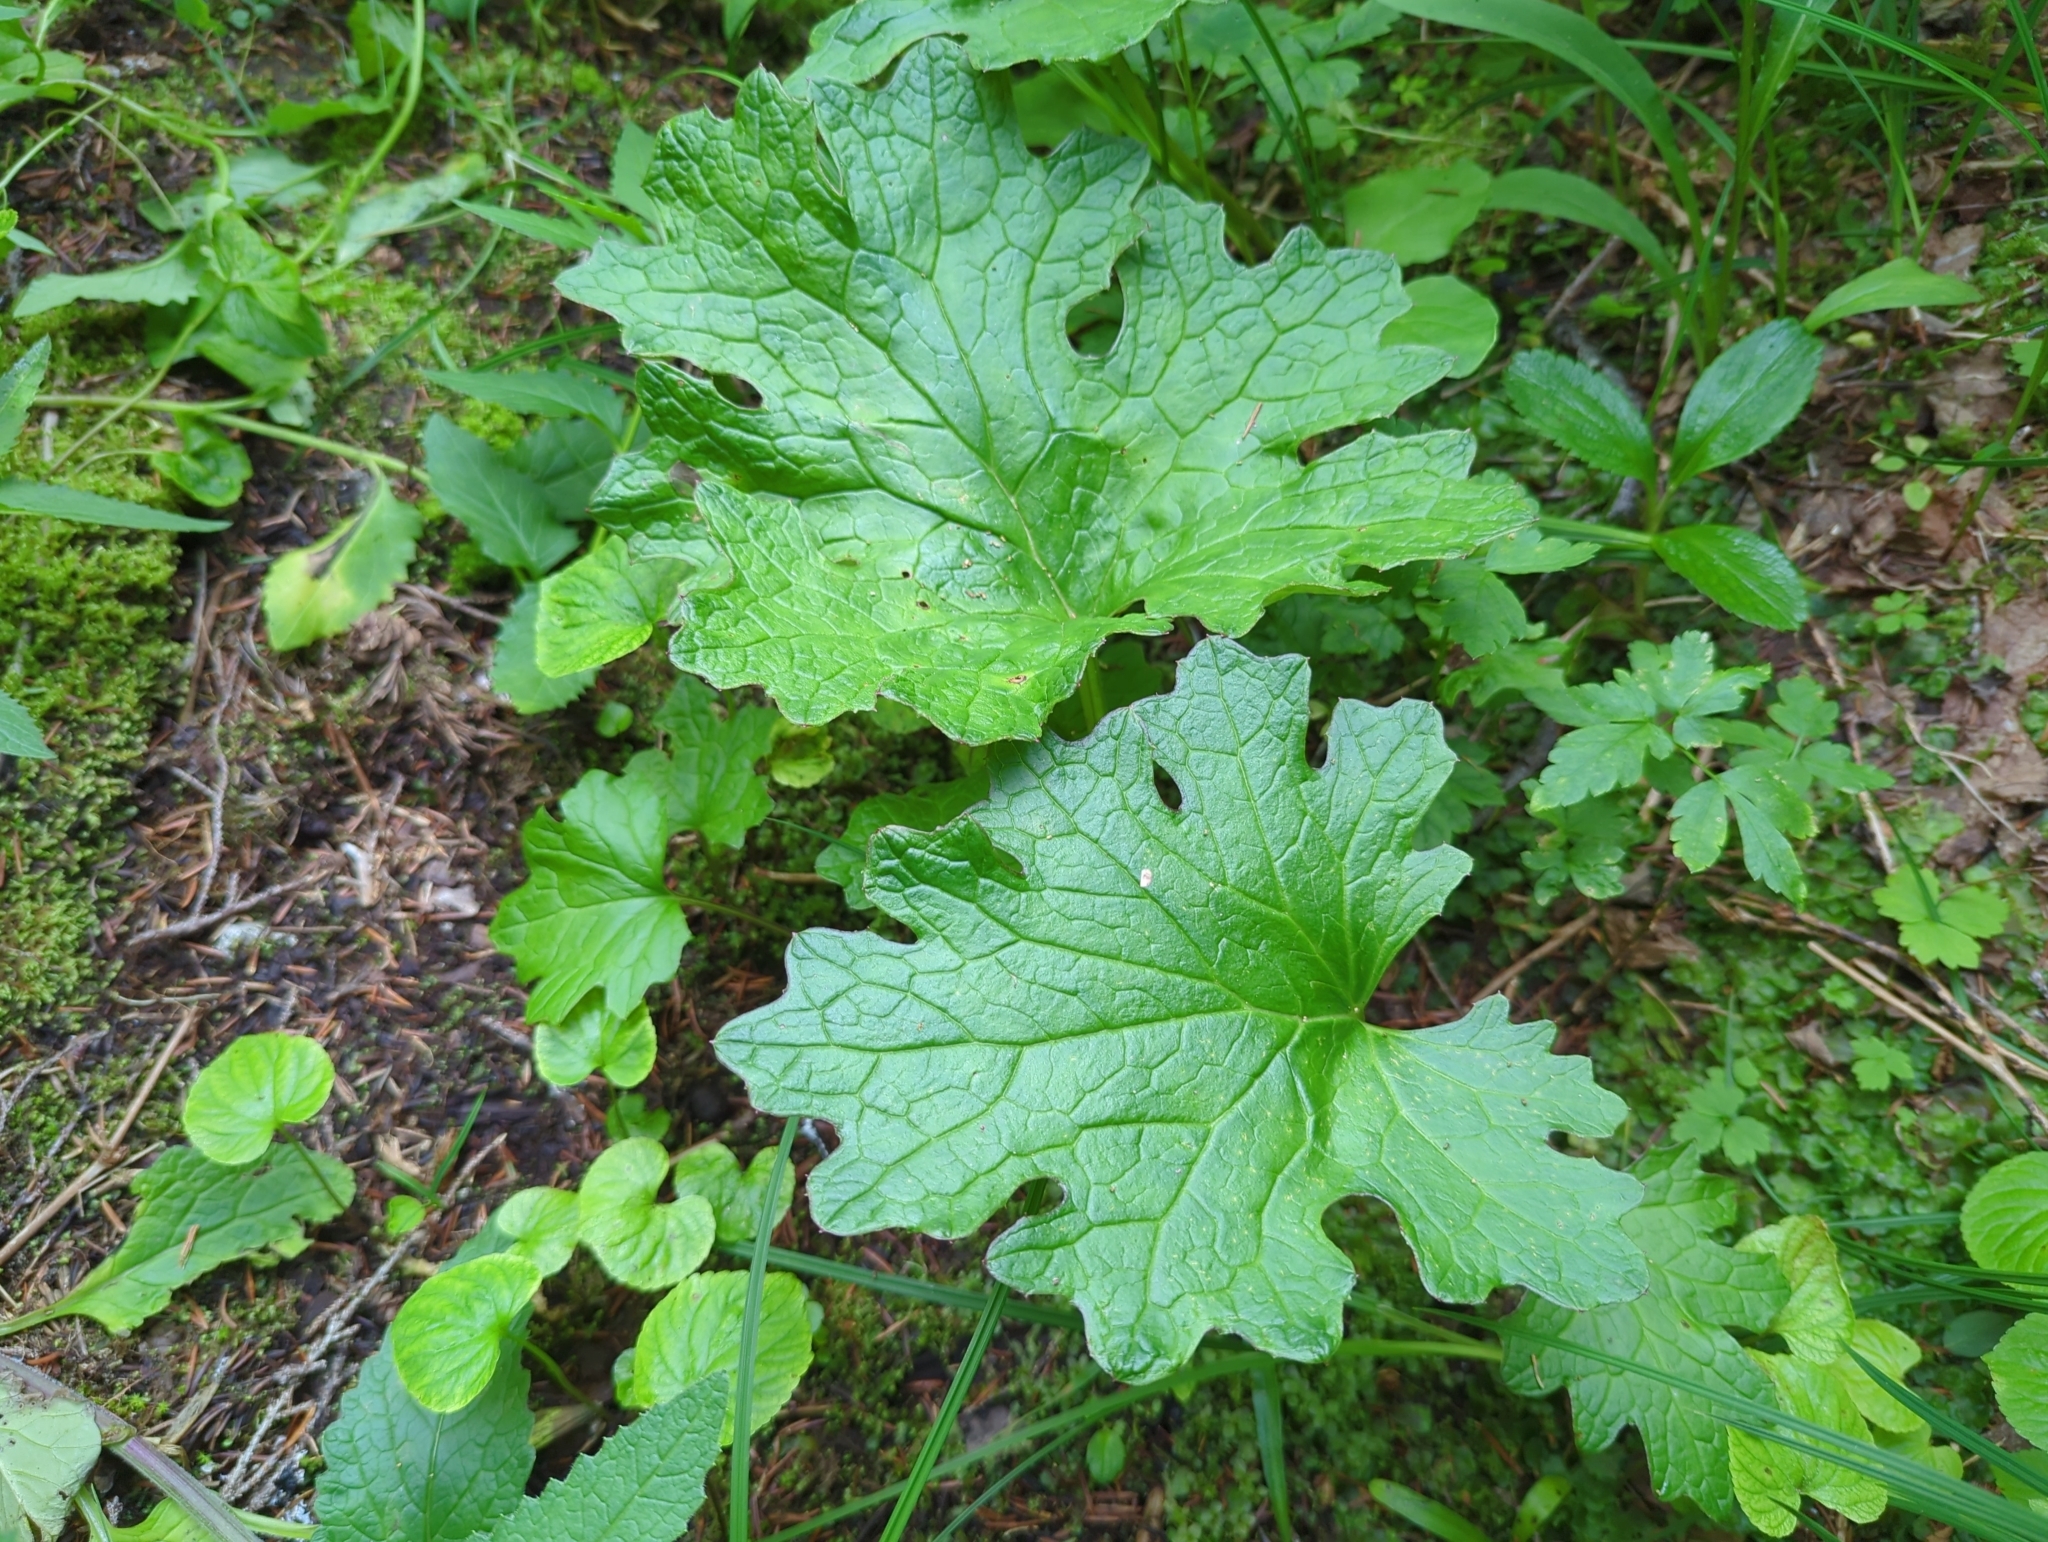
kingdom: Plantae
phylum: Tracheophyta
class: Magnoliopsida
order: Asterales
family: Asteraceae
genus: Petasites
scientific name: Petasites frigidus
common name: Arctic butterbur
